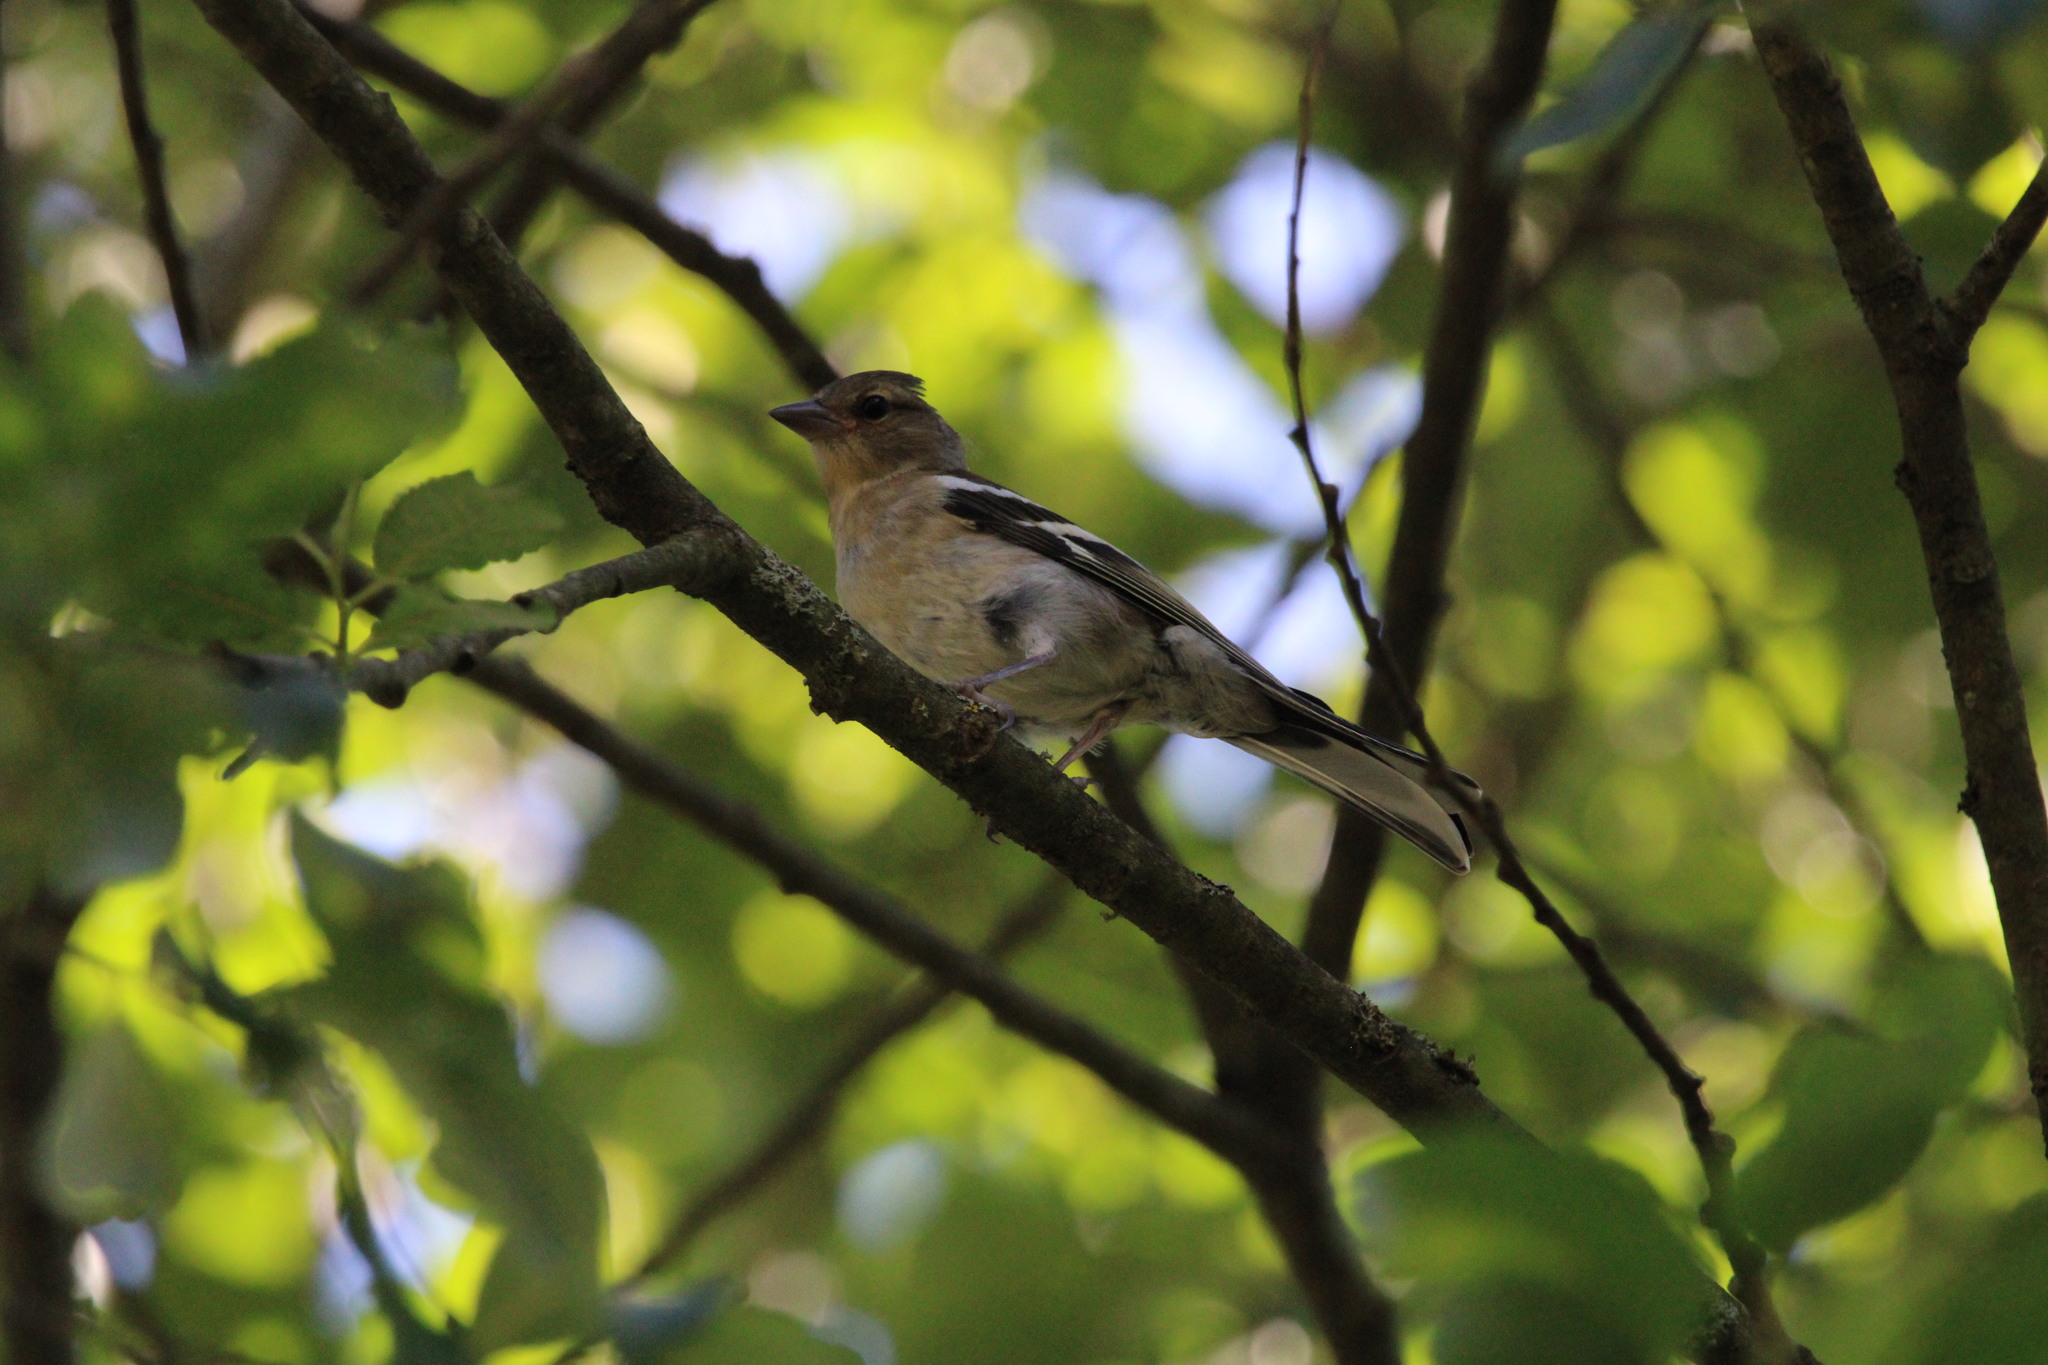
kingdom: Animalia
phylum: Chordata
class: Aves
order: Passeriformes
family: Fringillidae
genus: Fringilla
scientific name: Fringilla coelebs
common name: Common chaffinch
